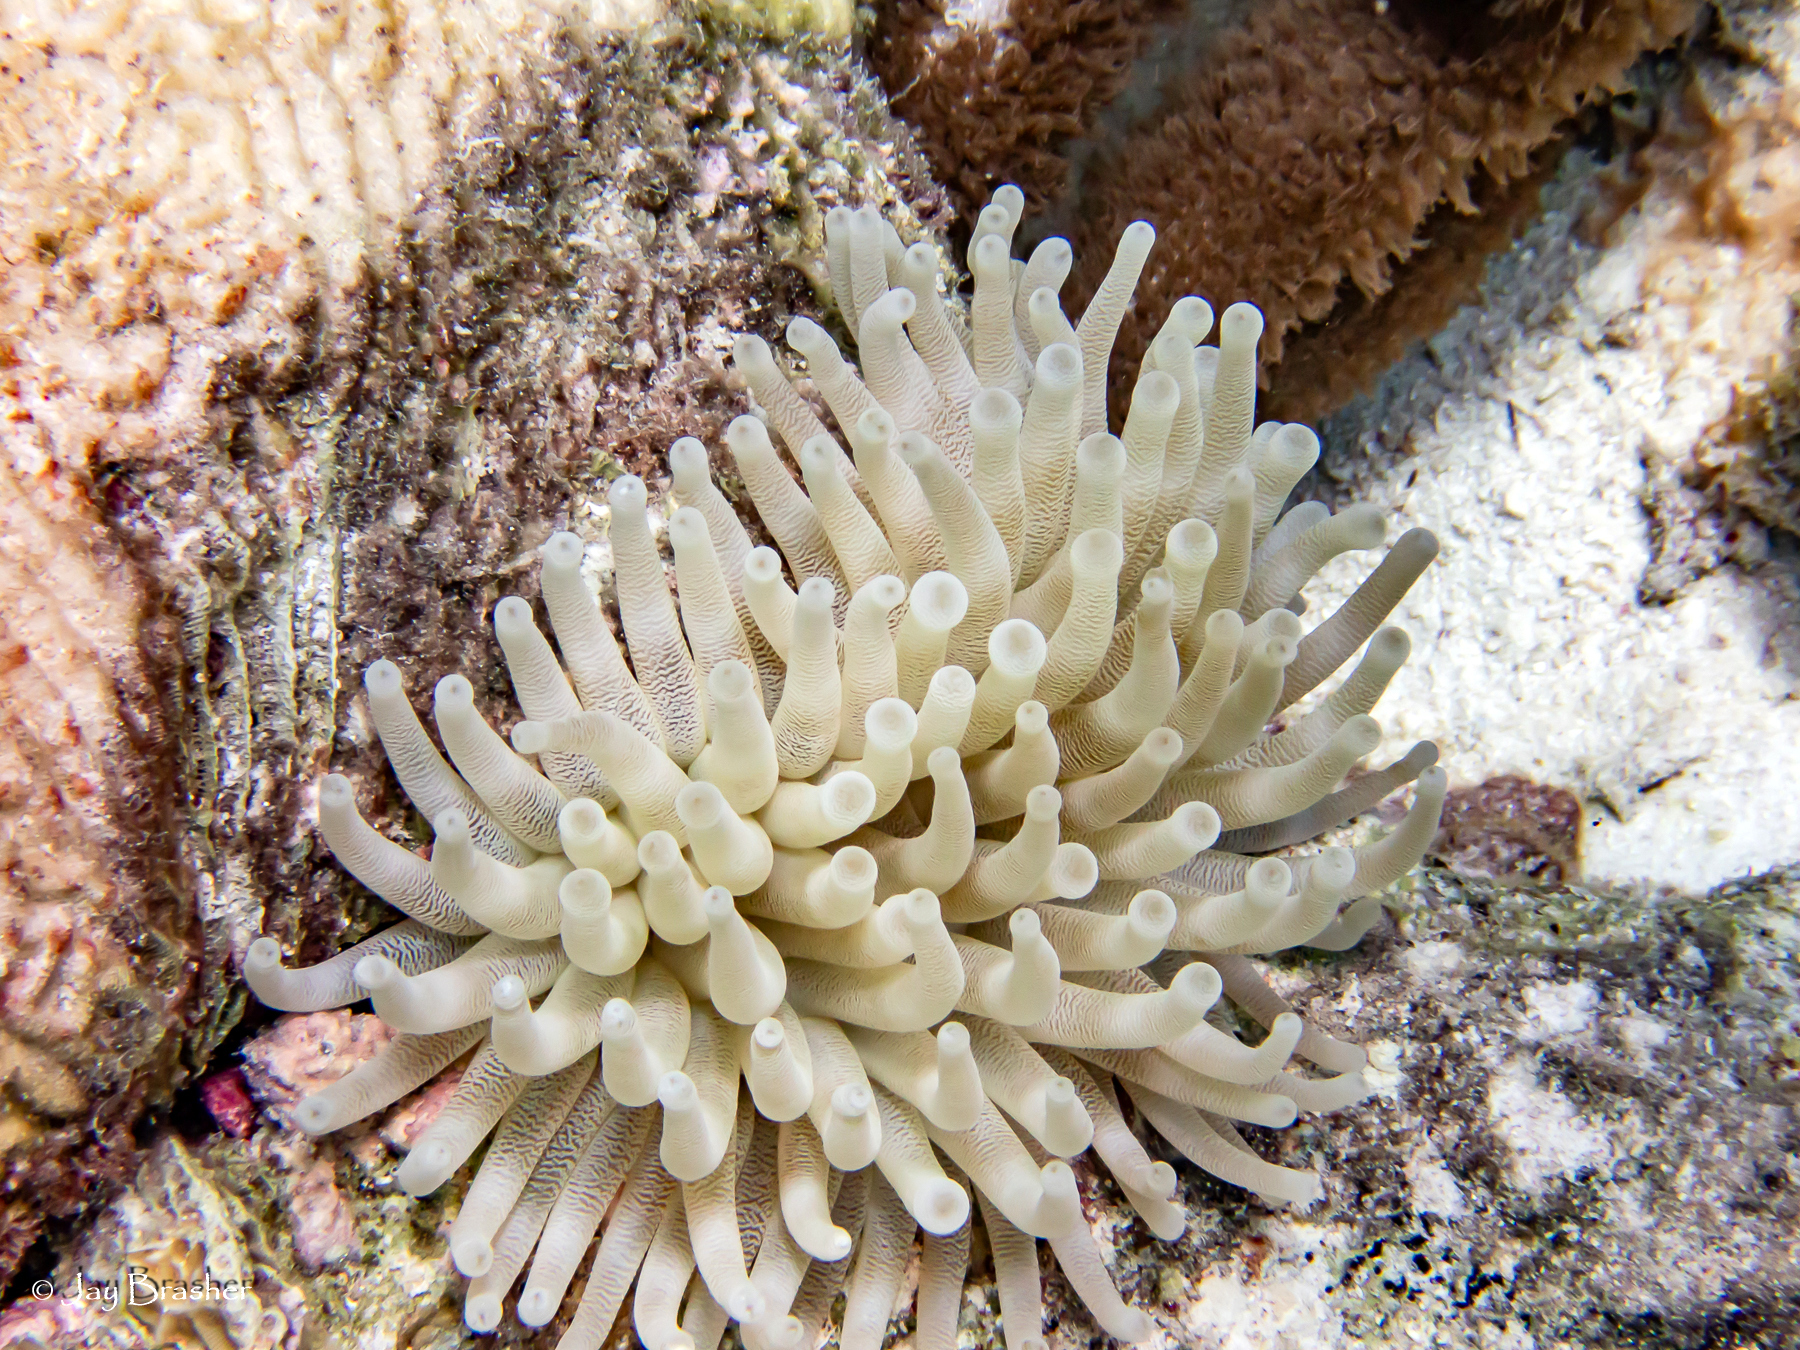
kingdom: Animalia
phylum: Cnidaria
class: Anthozoa
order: Actiniaria
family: Actiniidae
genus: Condylactis
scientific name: Condylactis gigantea
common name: Giant caribbean anemone
